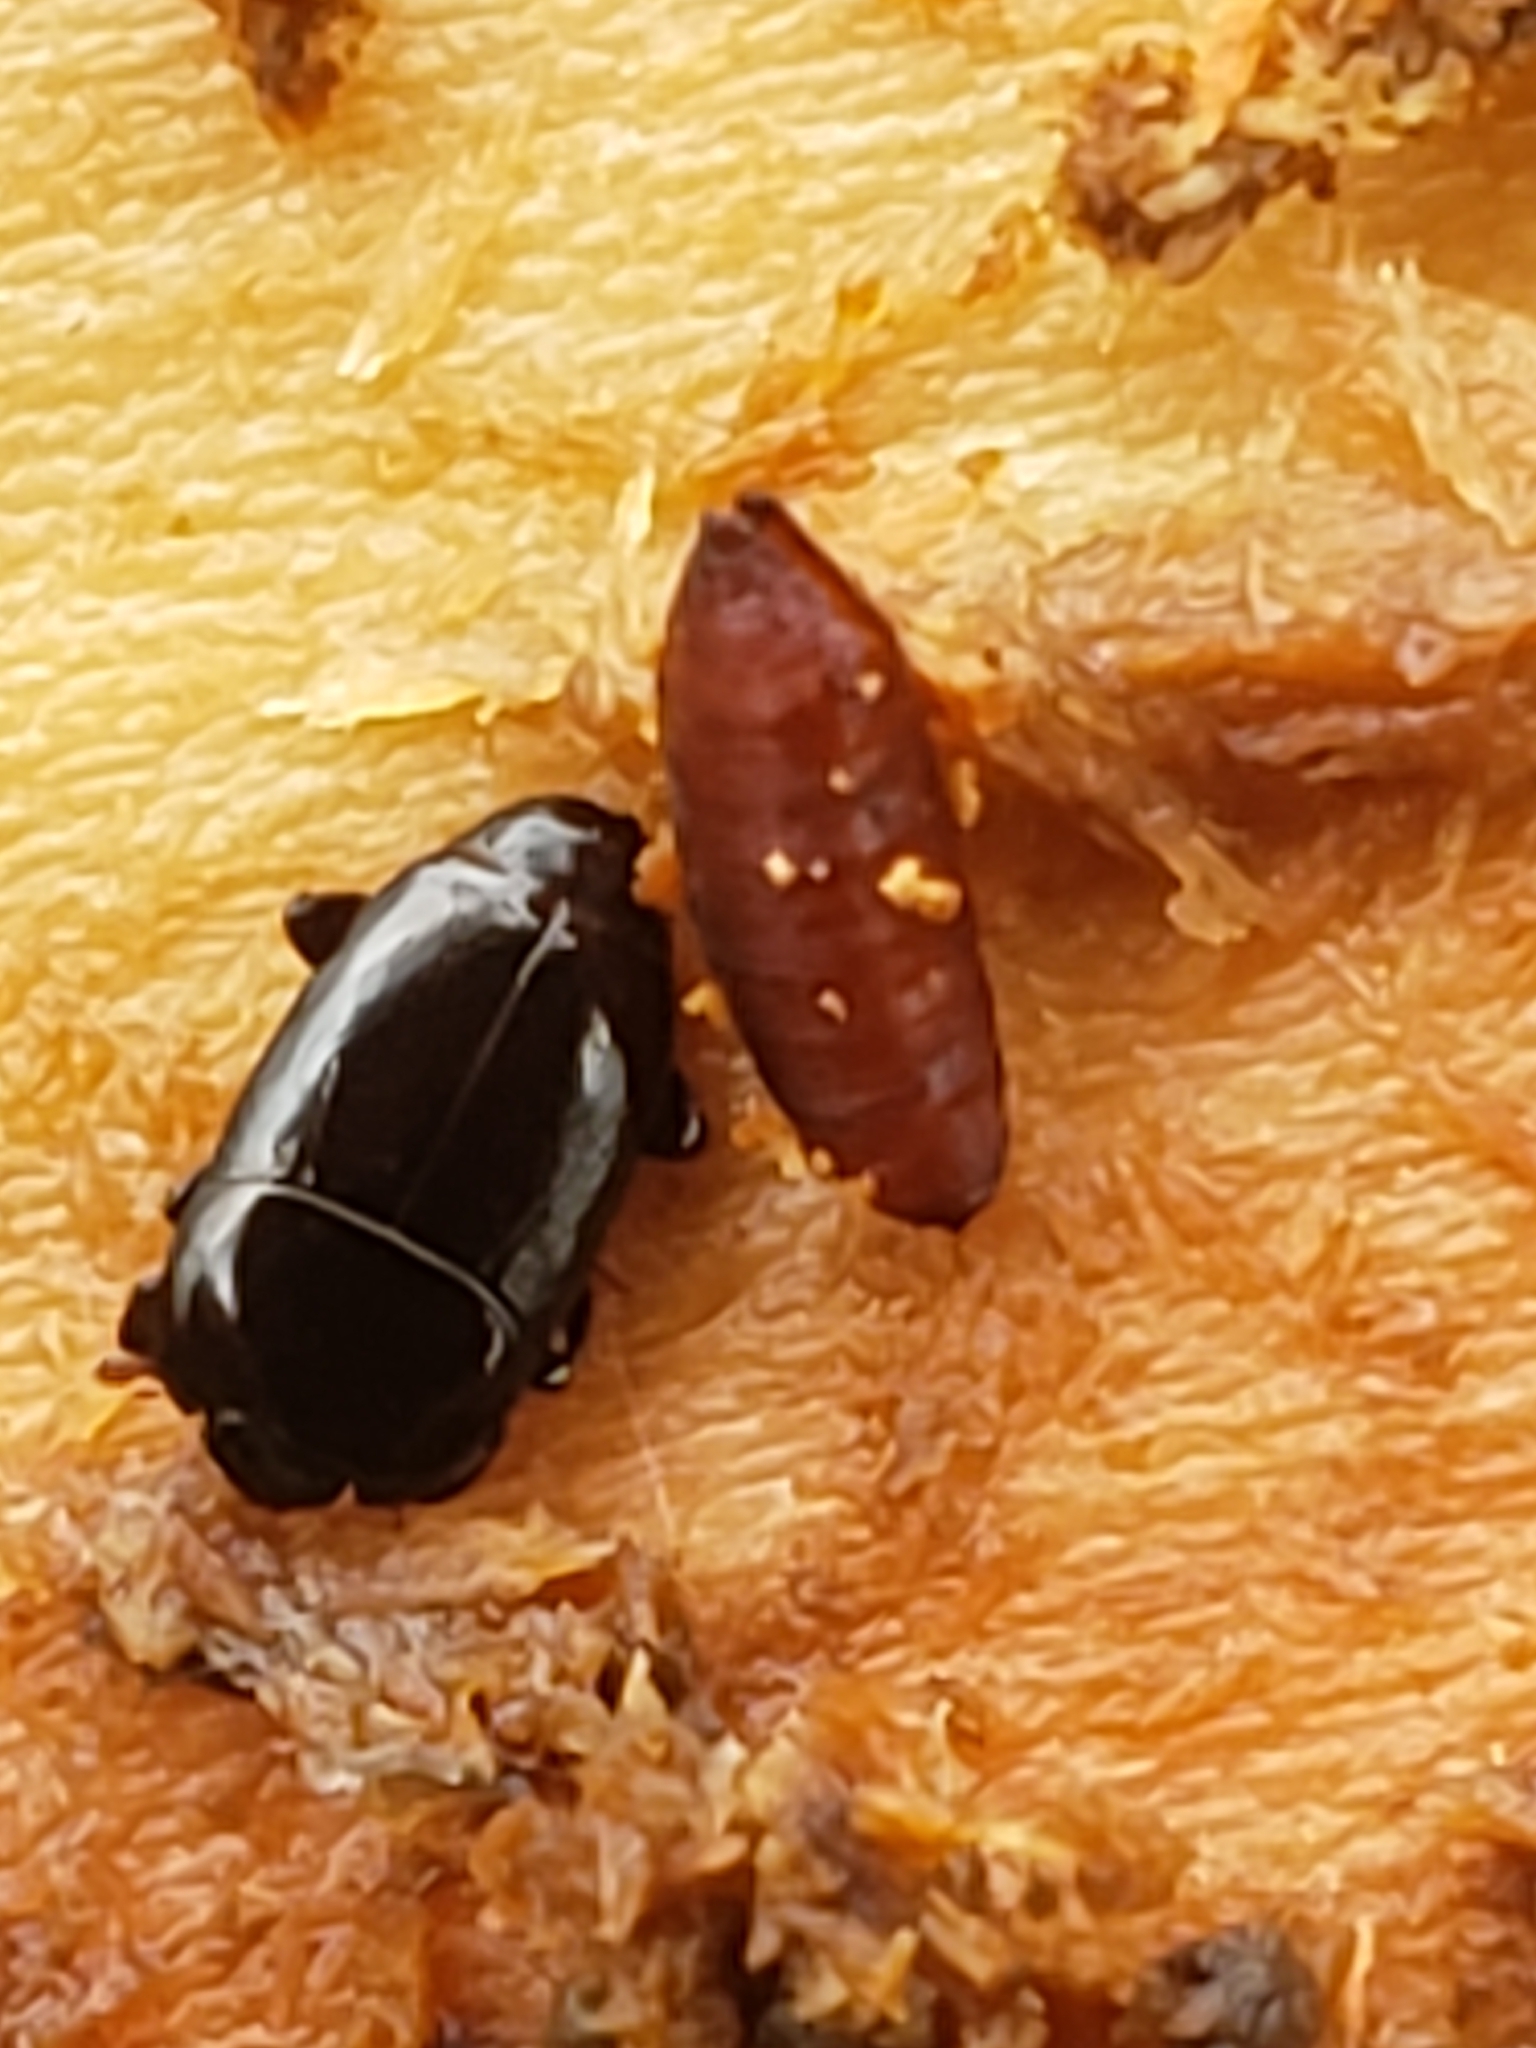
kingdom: Animalia
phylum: Arthropoda
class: Insecta
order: Coleoptera
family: Histeridae
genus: Platylomalus
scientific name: Platylomalus aequalis
